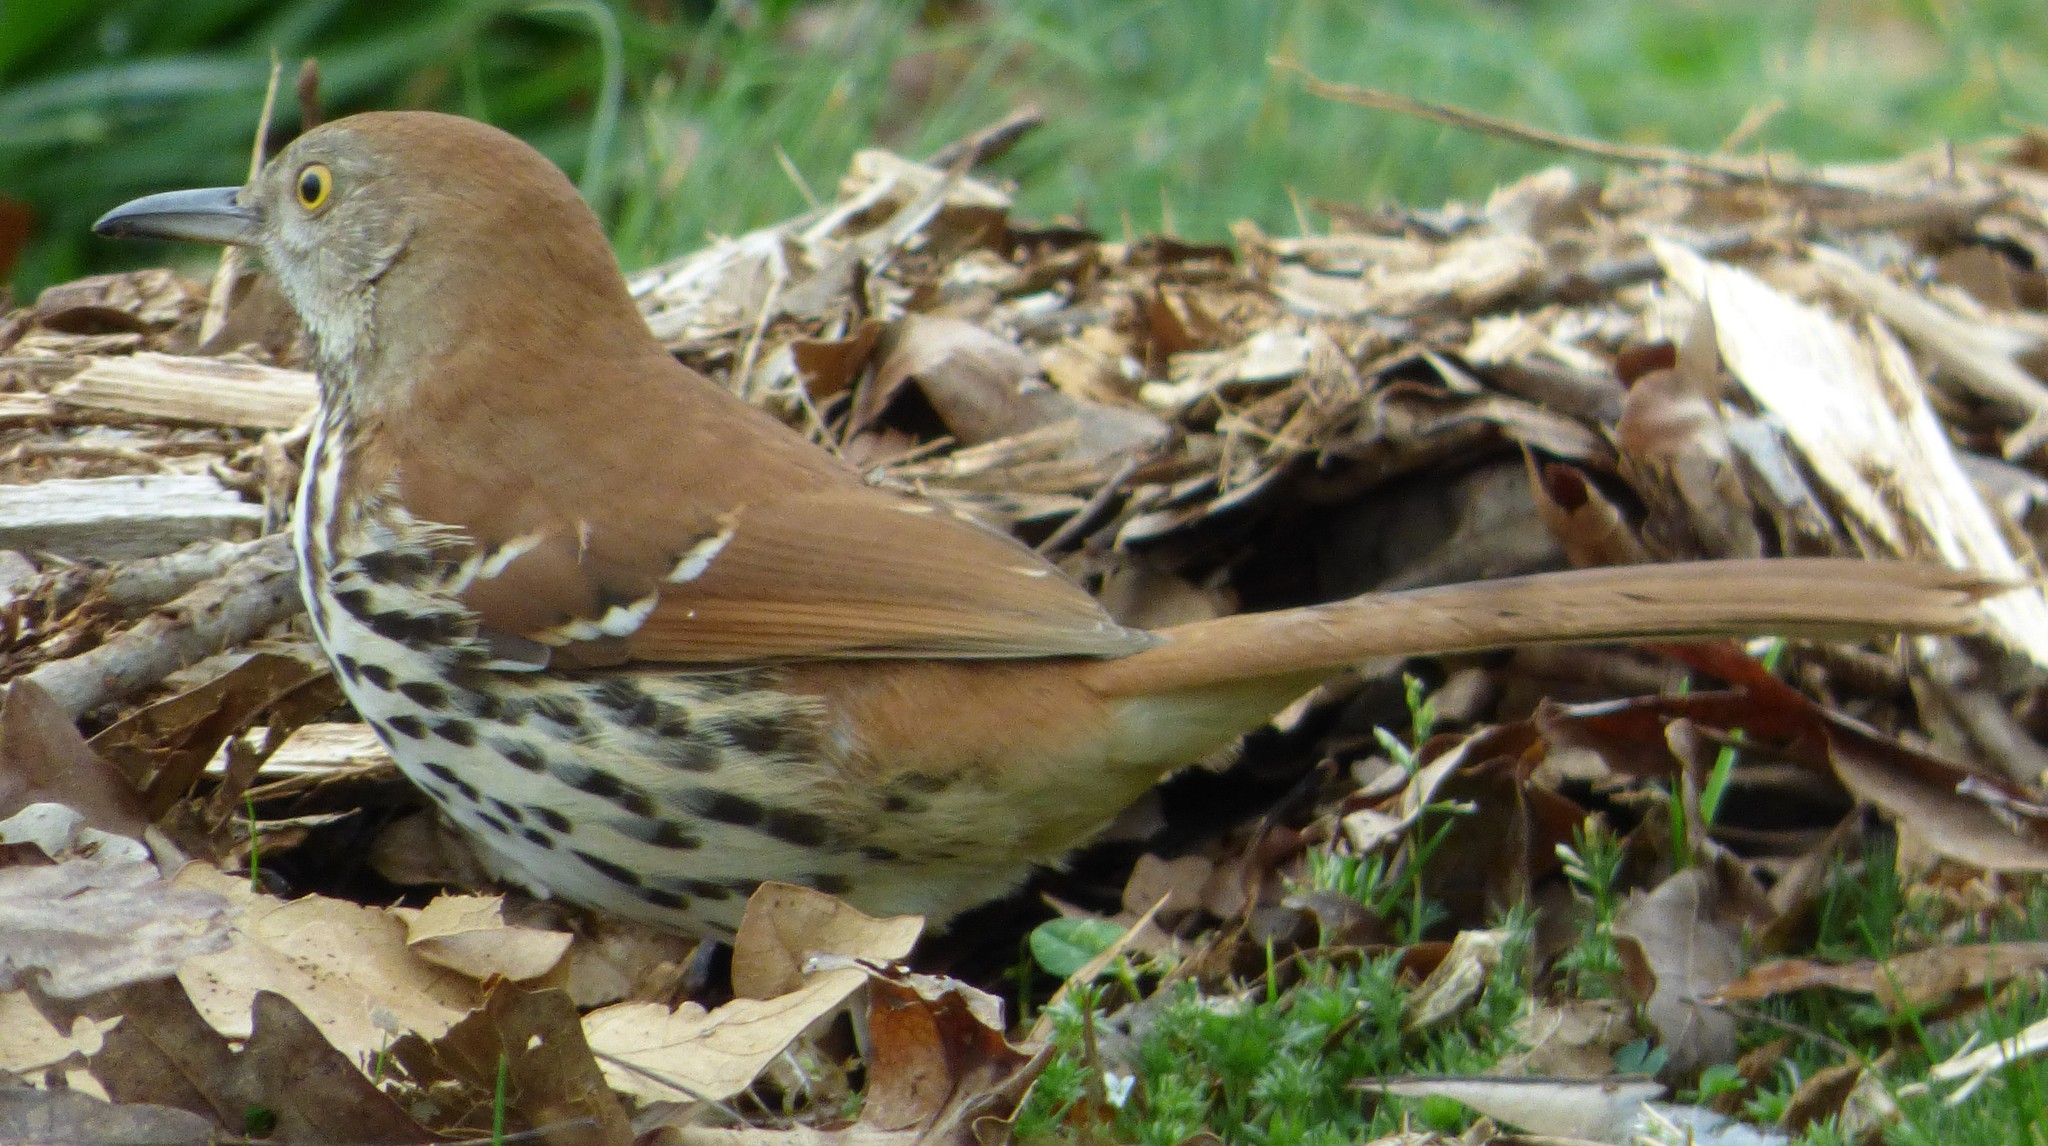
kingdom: Animalia
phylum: Chordata
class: Aves
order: Passeriformes
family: Mimidae
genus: Toxostoma
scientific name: Toxostoma rufum
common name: Brown thrasher
